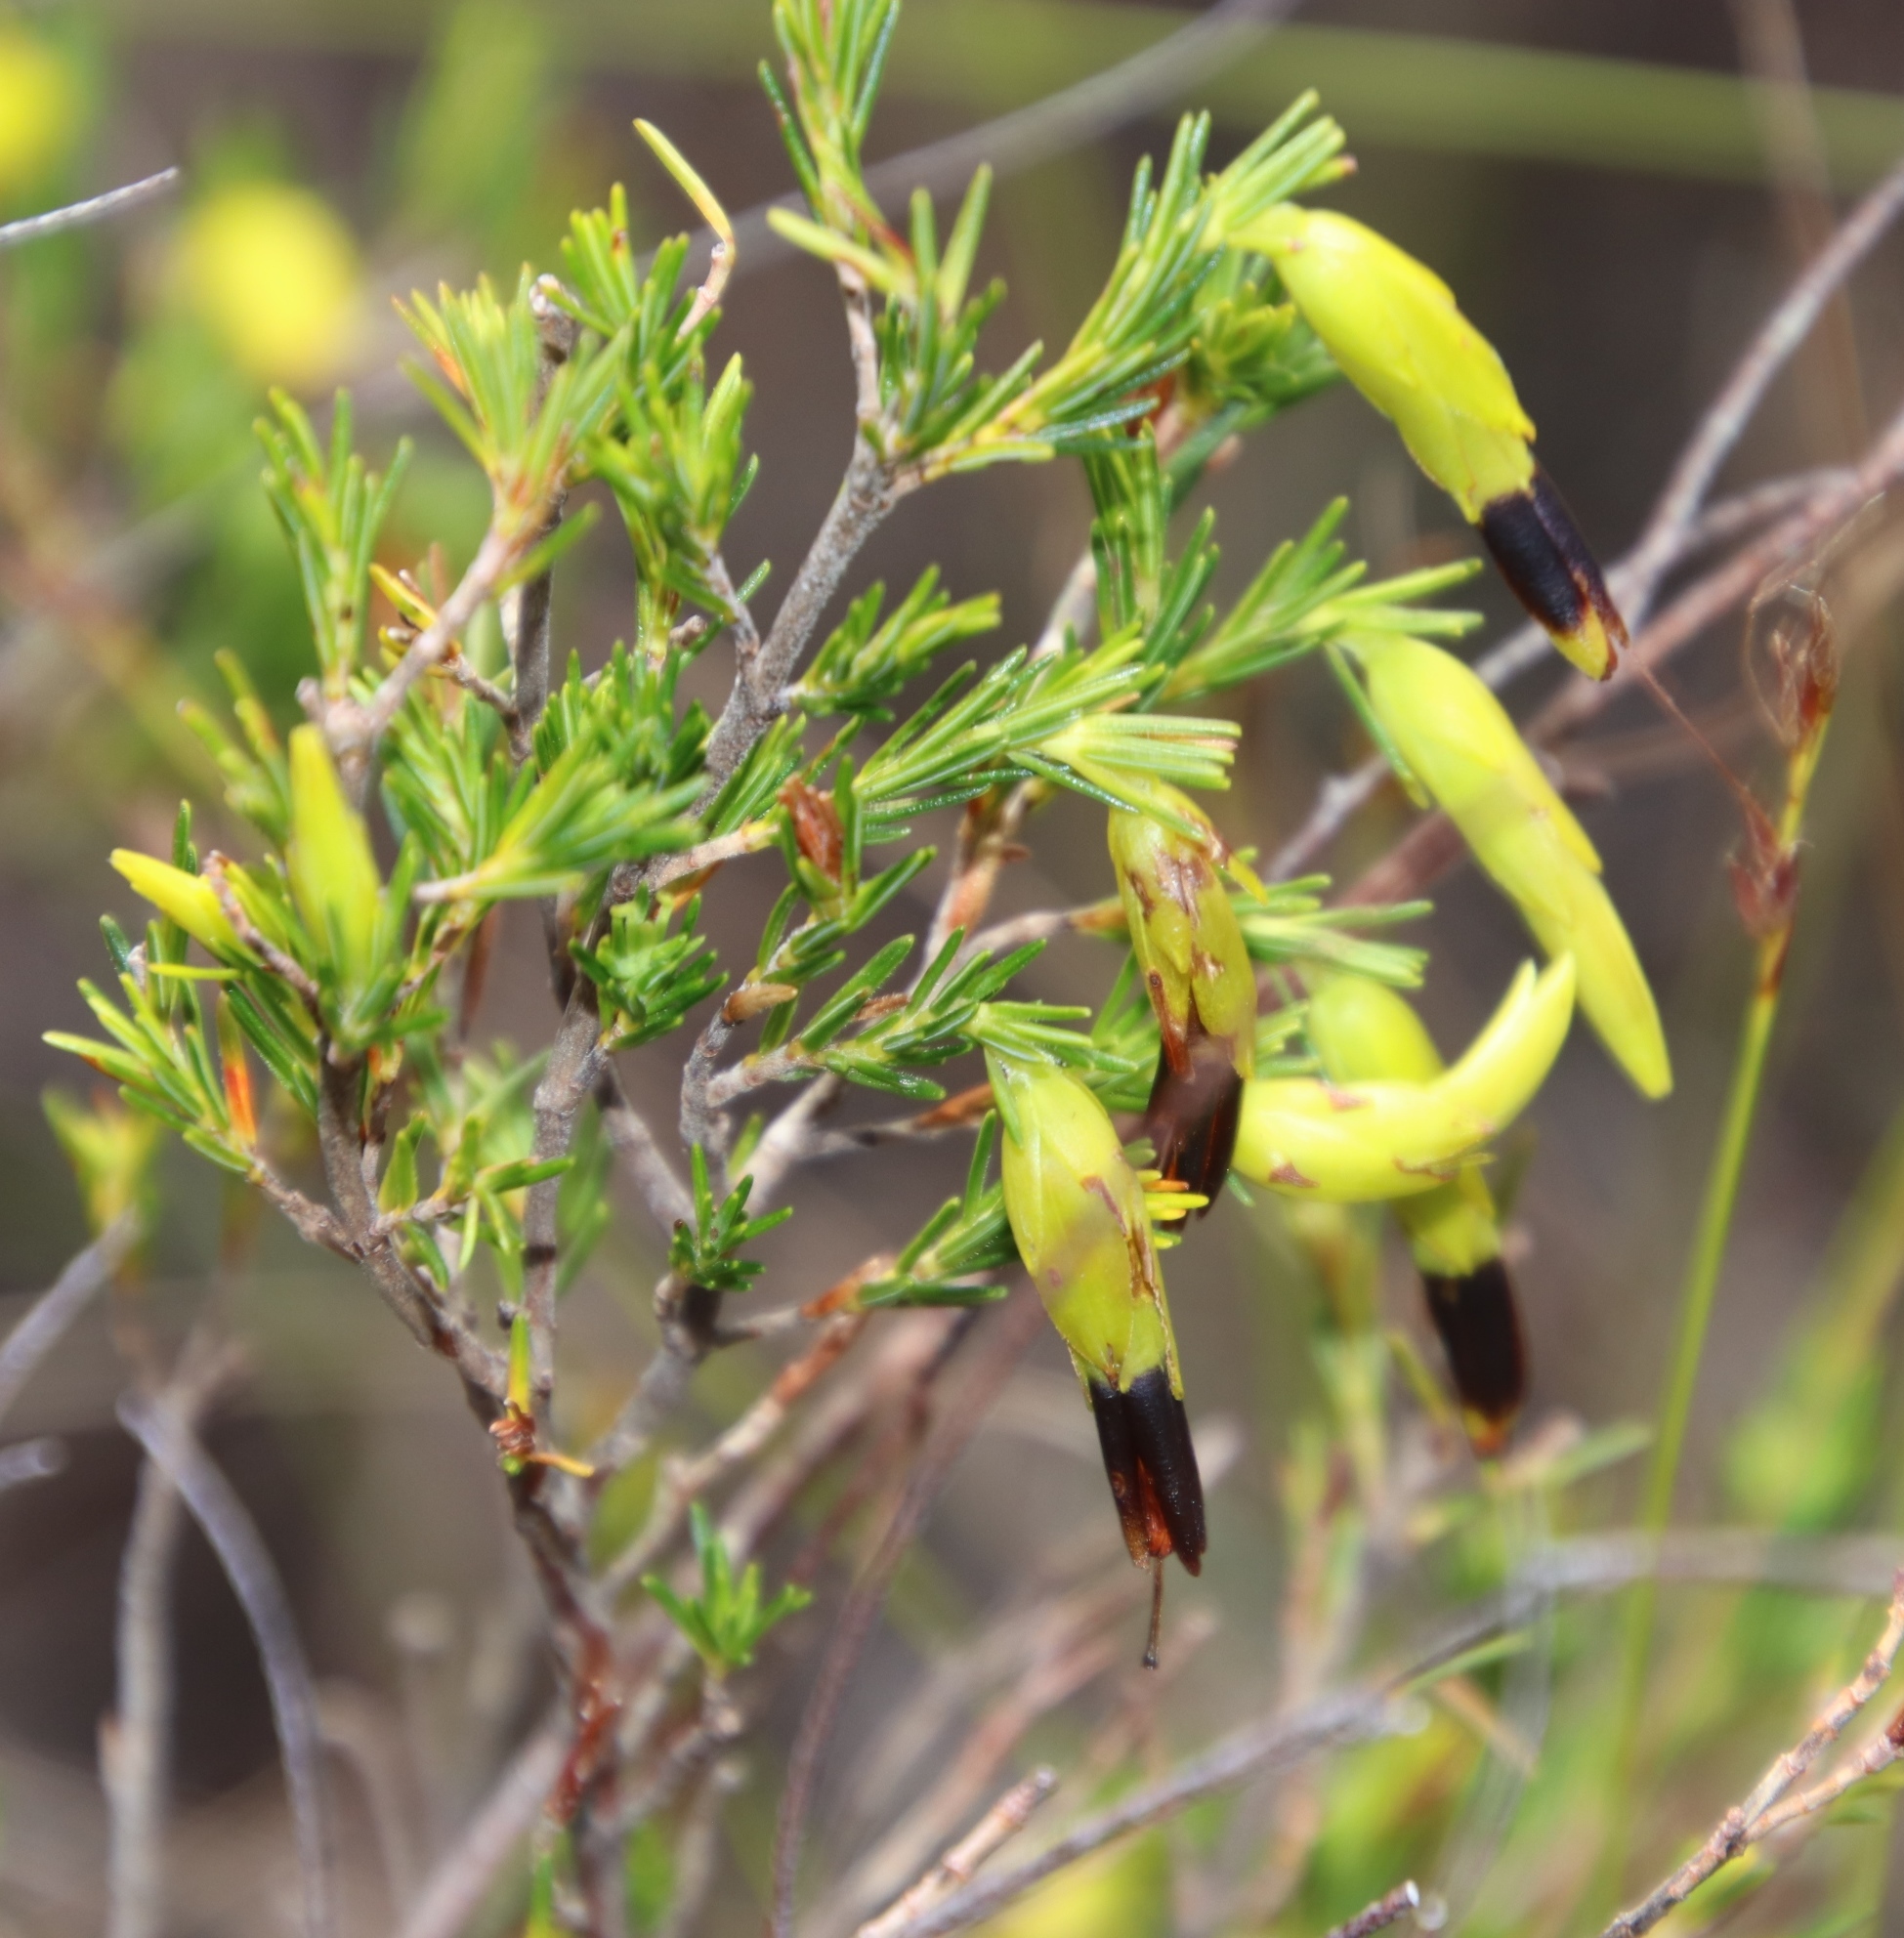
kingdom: Plantae
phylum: Tracheophyta
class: Magnoliopsida
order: Ericales
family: Ericaceae
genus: Erica
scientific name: Erica melastoma
